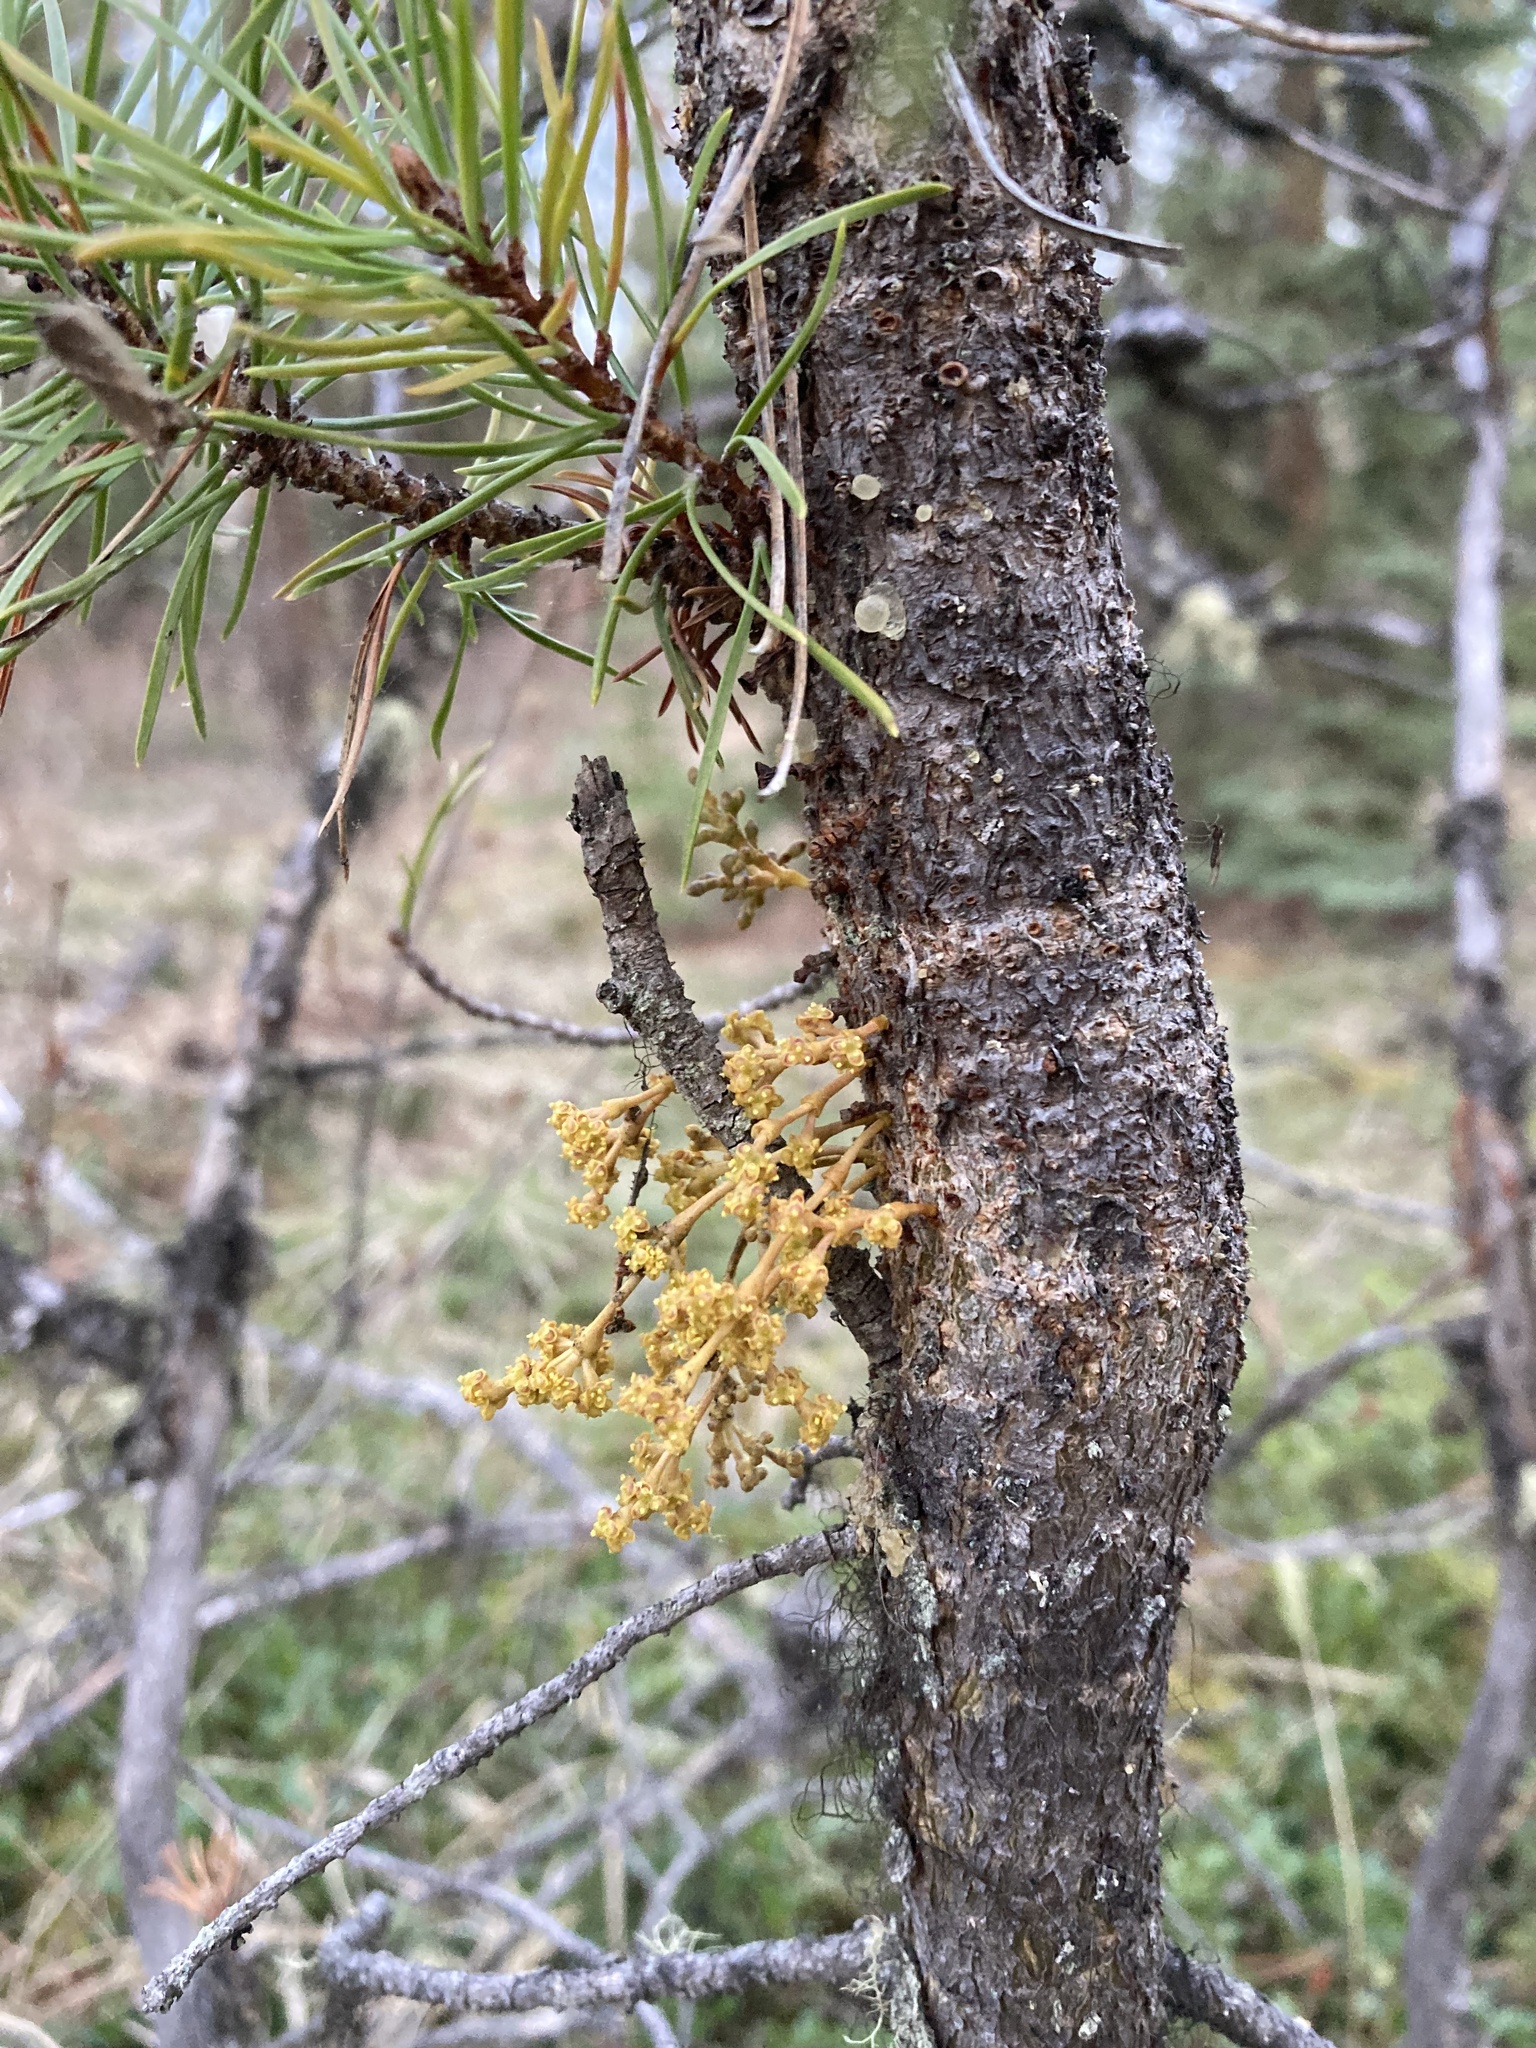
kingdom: Plantae
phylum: Tracheophyta
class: Magnoliopsida
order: Santalales
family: Viscaceae
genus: Arceuthobium
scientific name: Arceuthobium americanum
